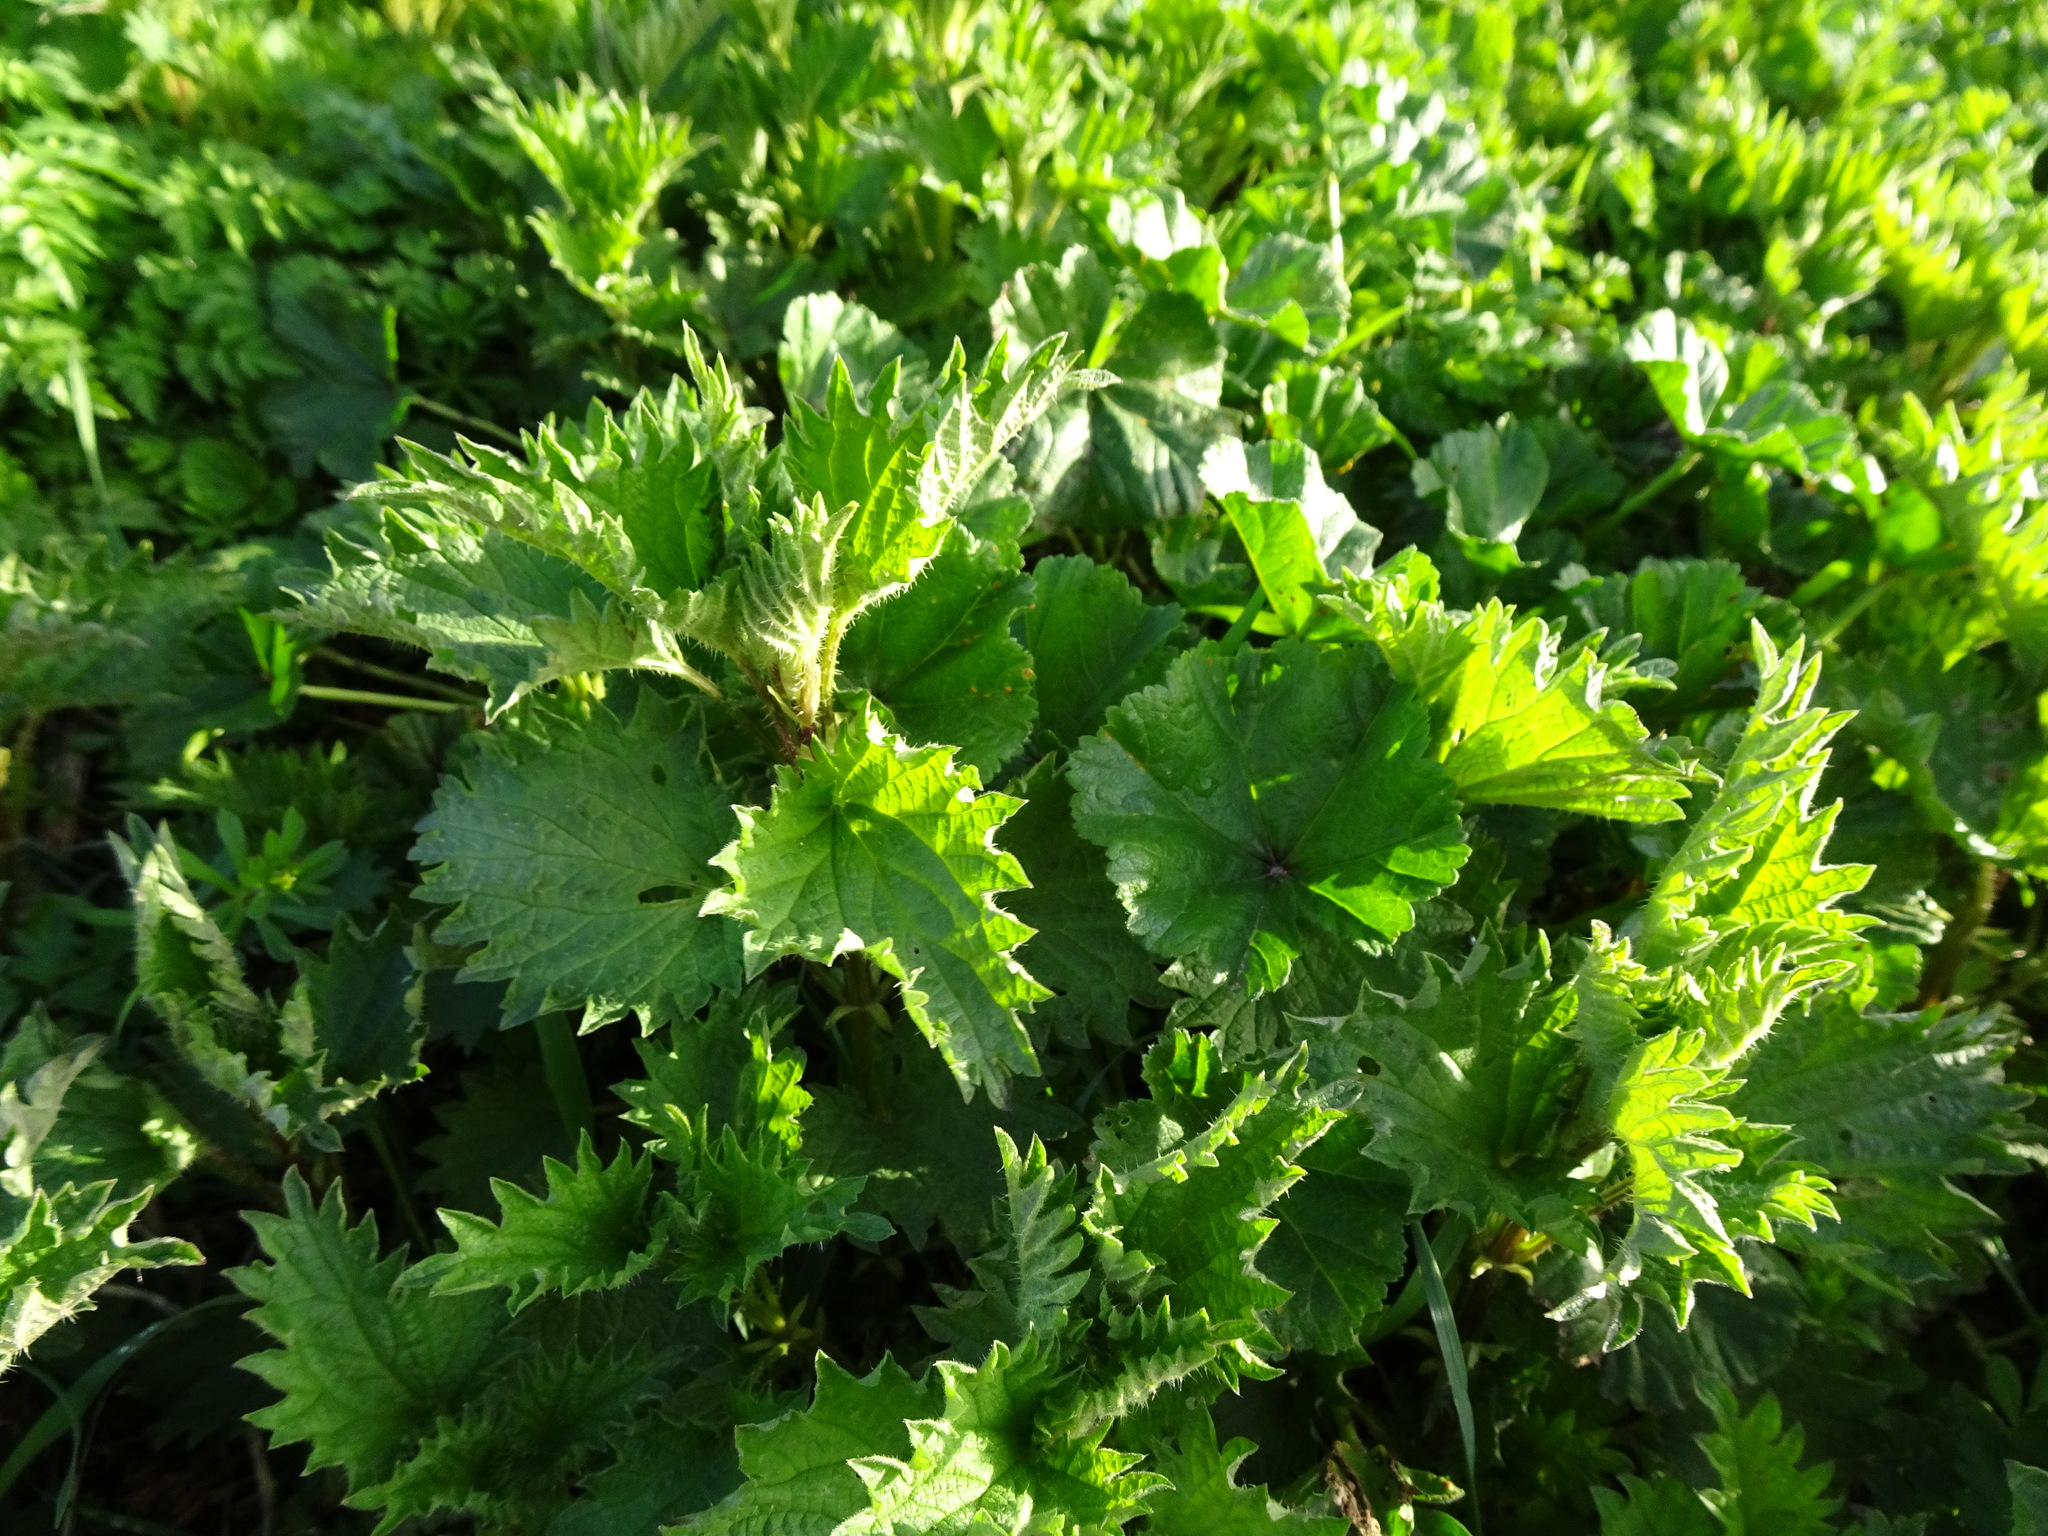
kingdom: Plantae
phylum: Tracheophyta
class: Magnoliopsida
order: Rosales
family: Urticaceae
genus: Urtica
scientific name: Urtica dioica
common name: Common nettle
